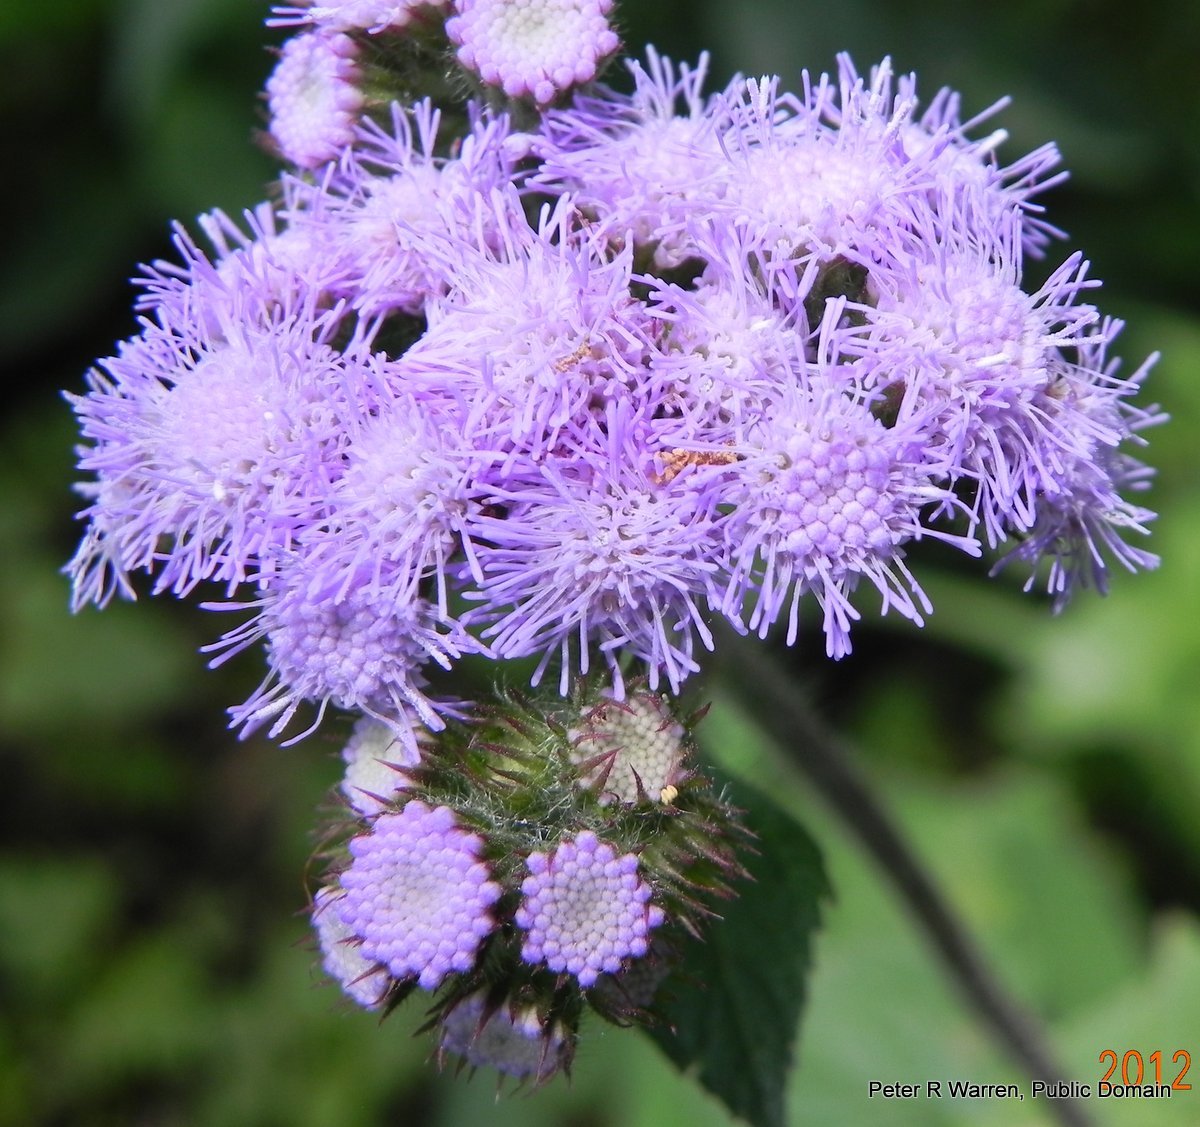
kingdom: Plantae
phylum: Tracheophyta
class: Magnoliopsida
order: Asterales
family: Asteraceae
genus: Ageratum
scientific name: Ageratum houstonianum
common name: Bluemink
